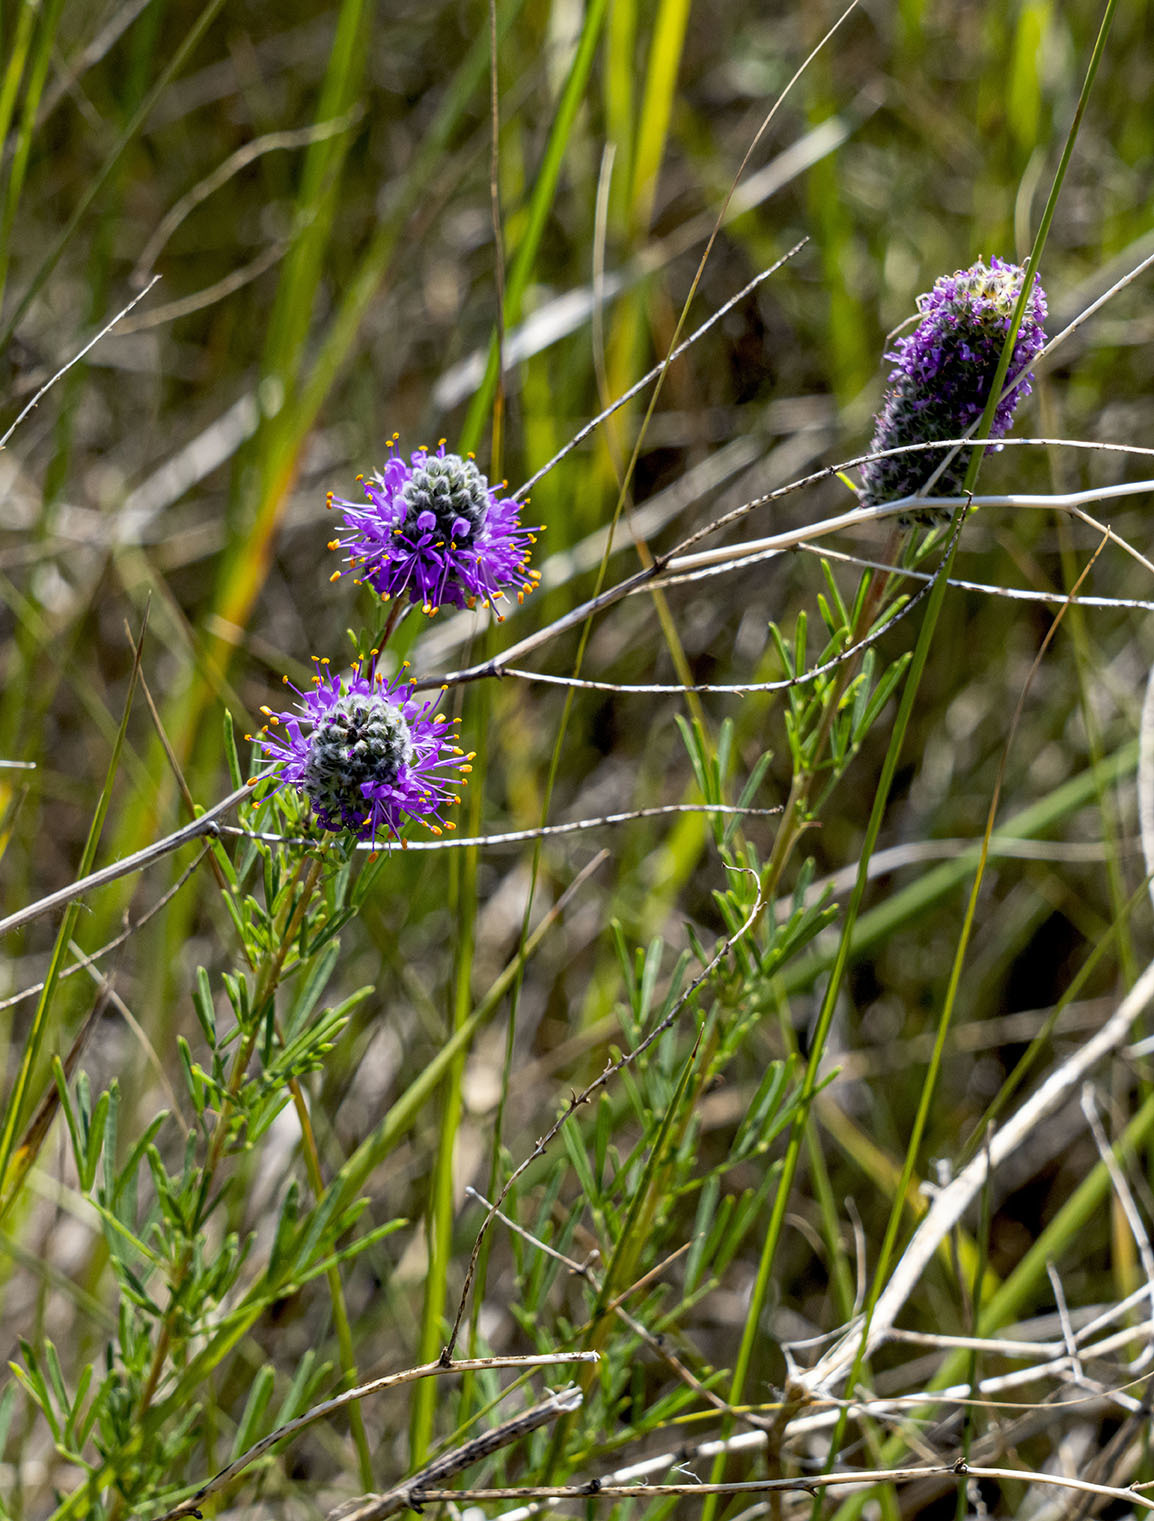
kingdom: Plantae
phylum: Tracheophyta
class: Magnoliopsida
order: Fabales
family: Fabaceae
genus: Dalea
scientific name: Dalea purpurea
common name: Purple prairie-clover
